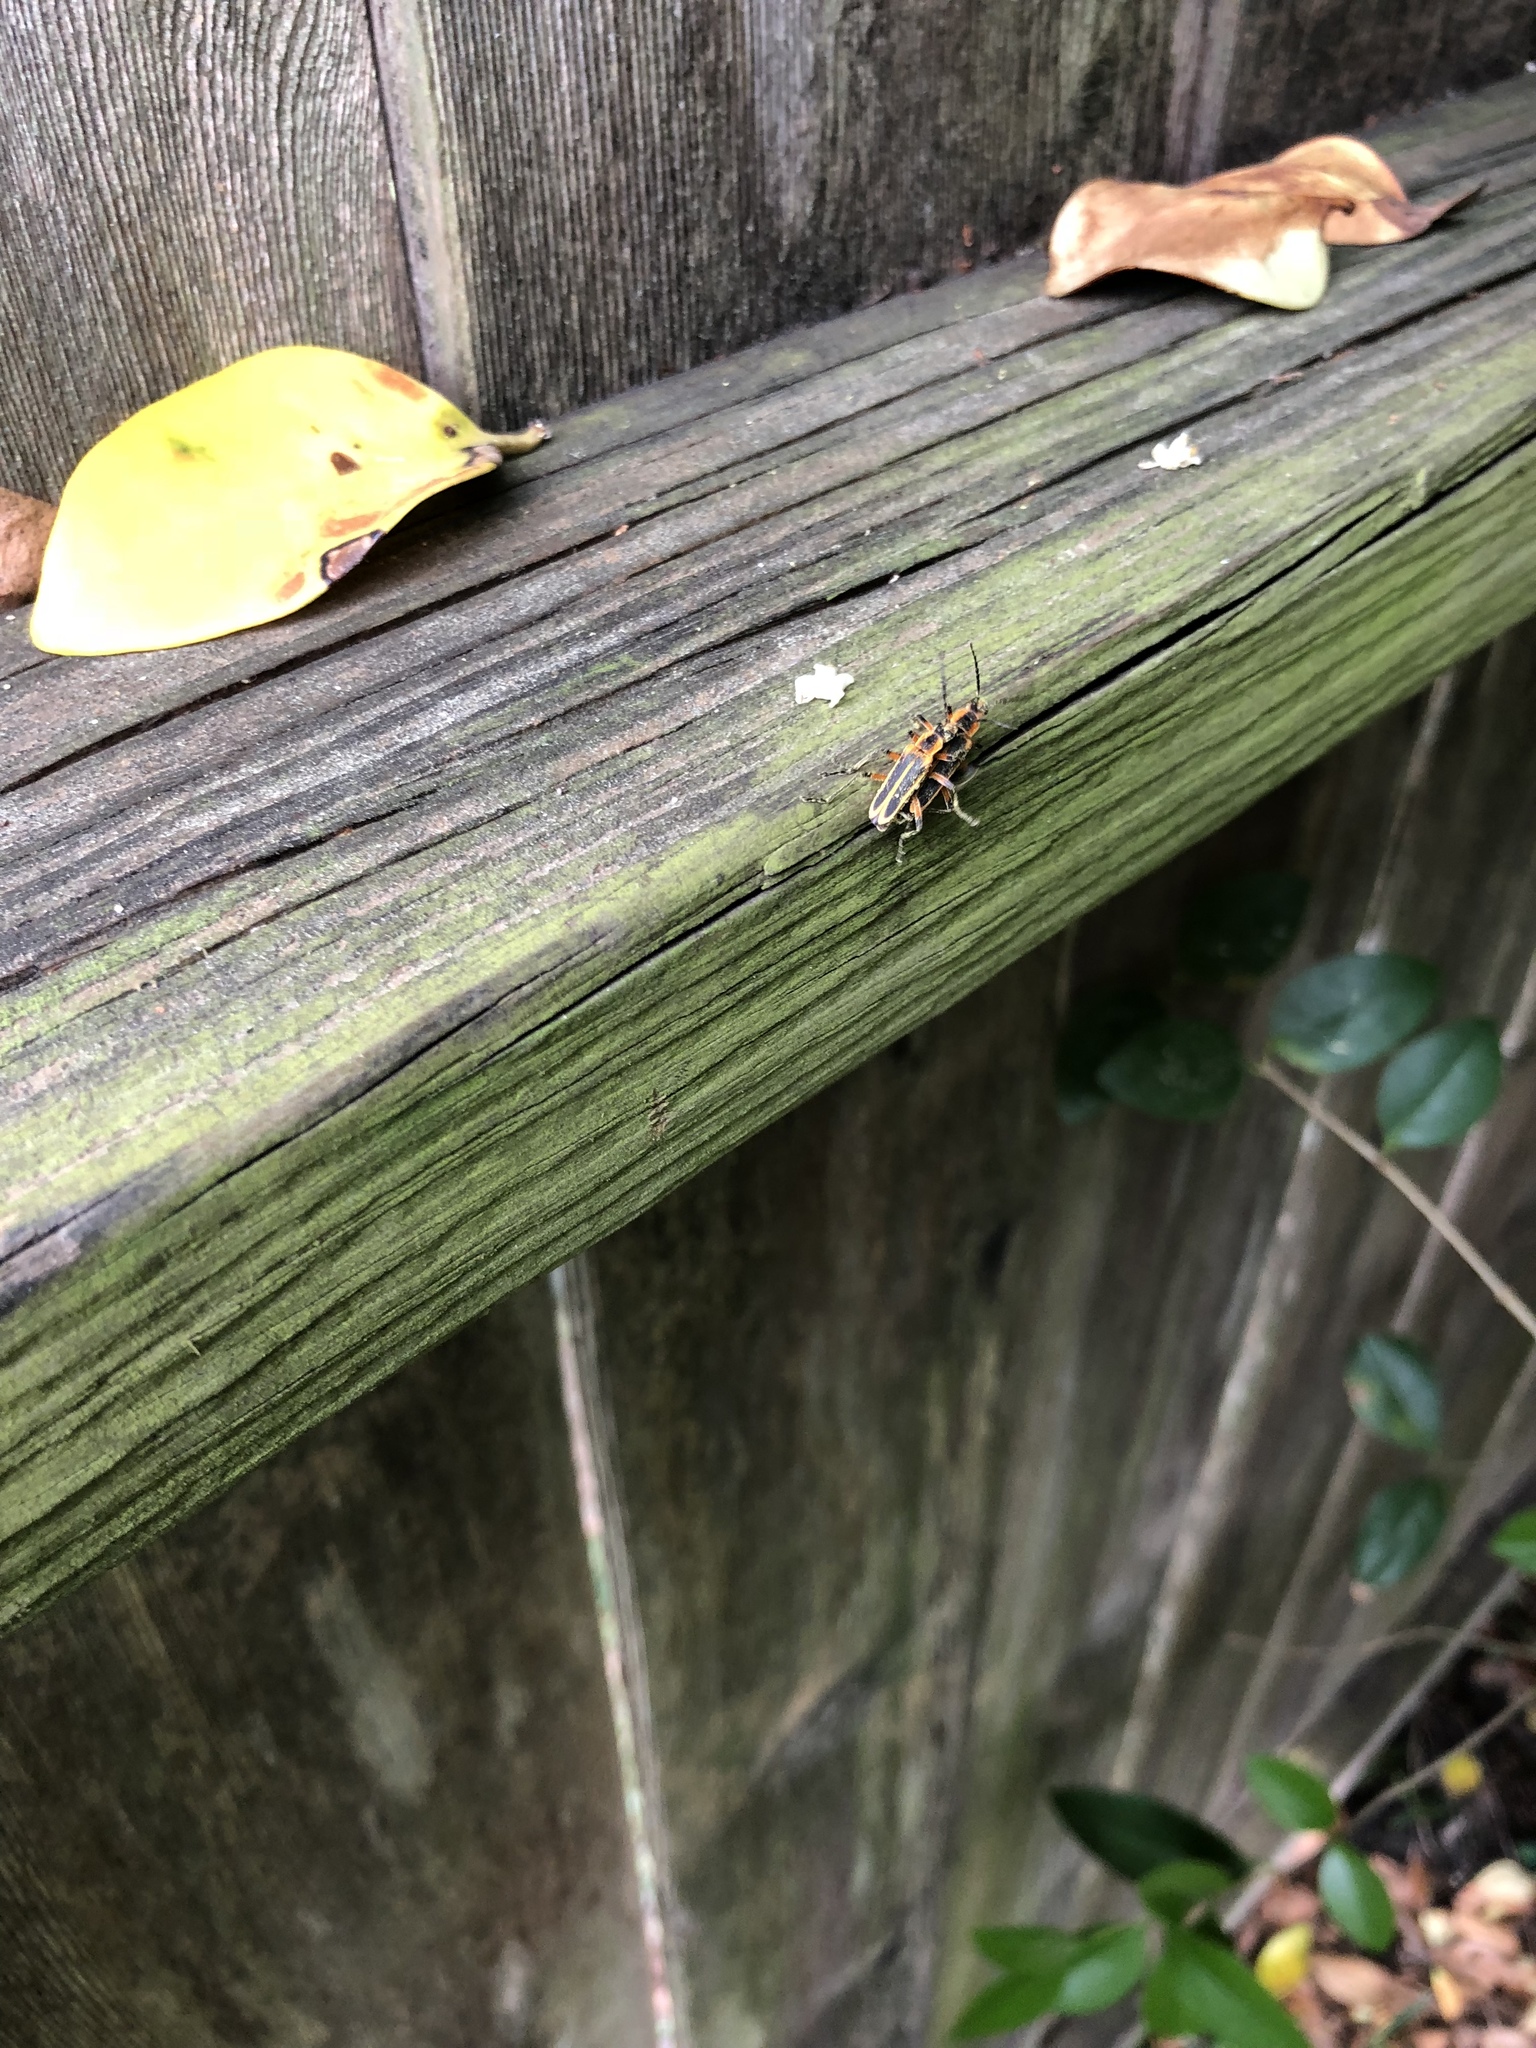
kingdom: Animalia
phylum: Arthropoda
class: Insecta
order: Coleoptera
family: Cantharidae
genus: Chauliognathus
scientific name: Chauliognathus marginatus
